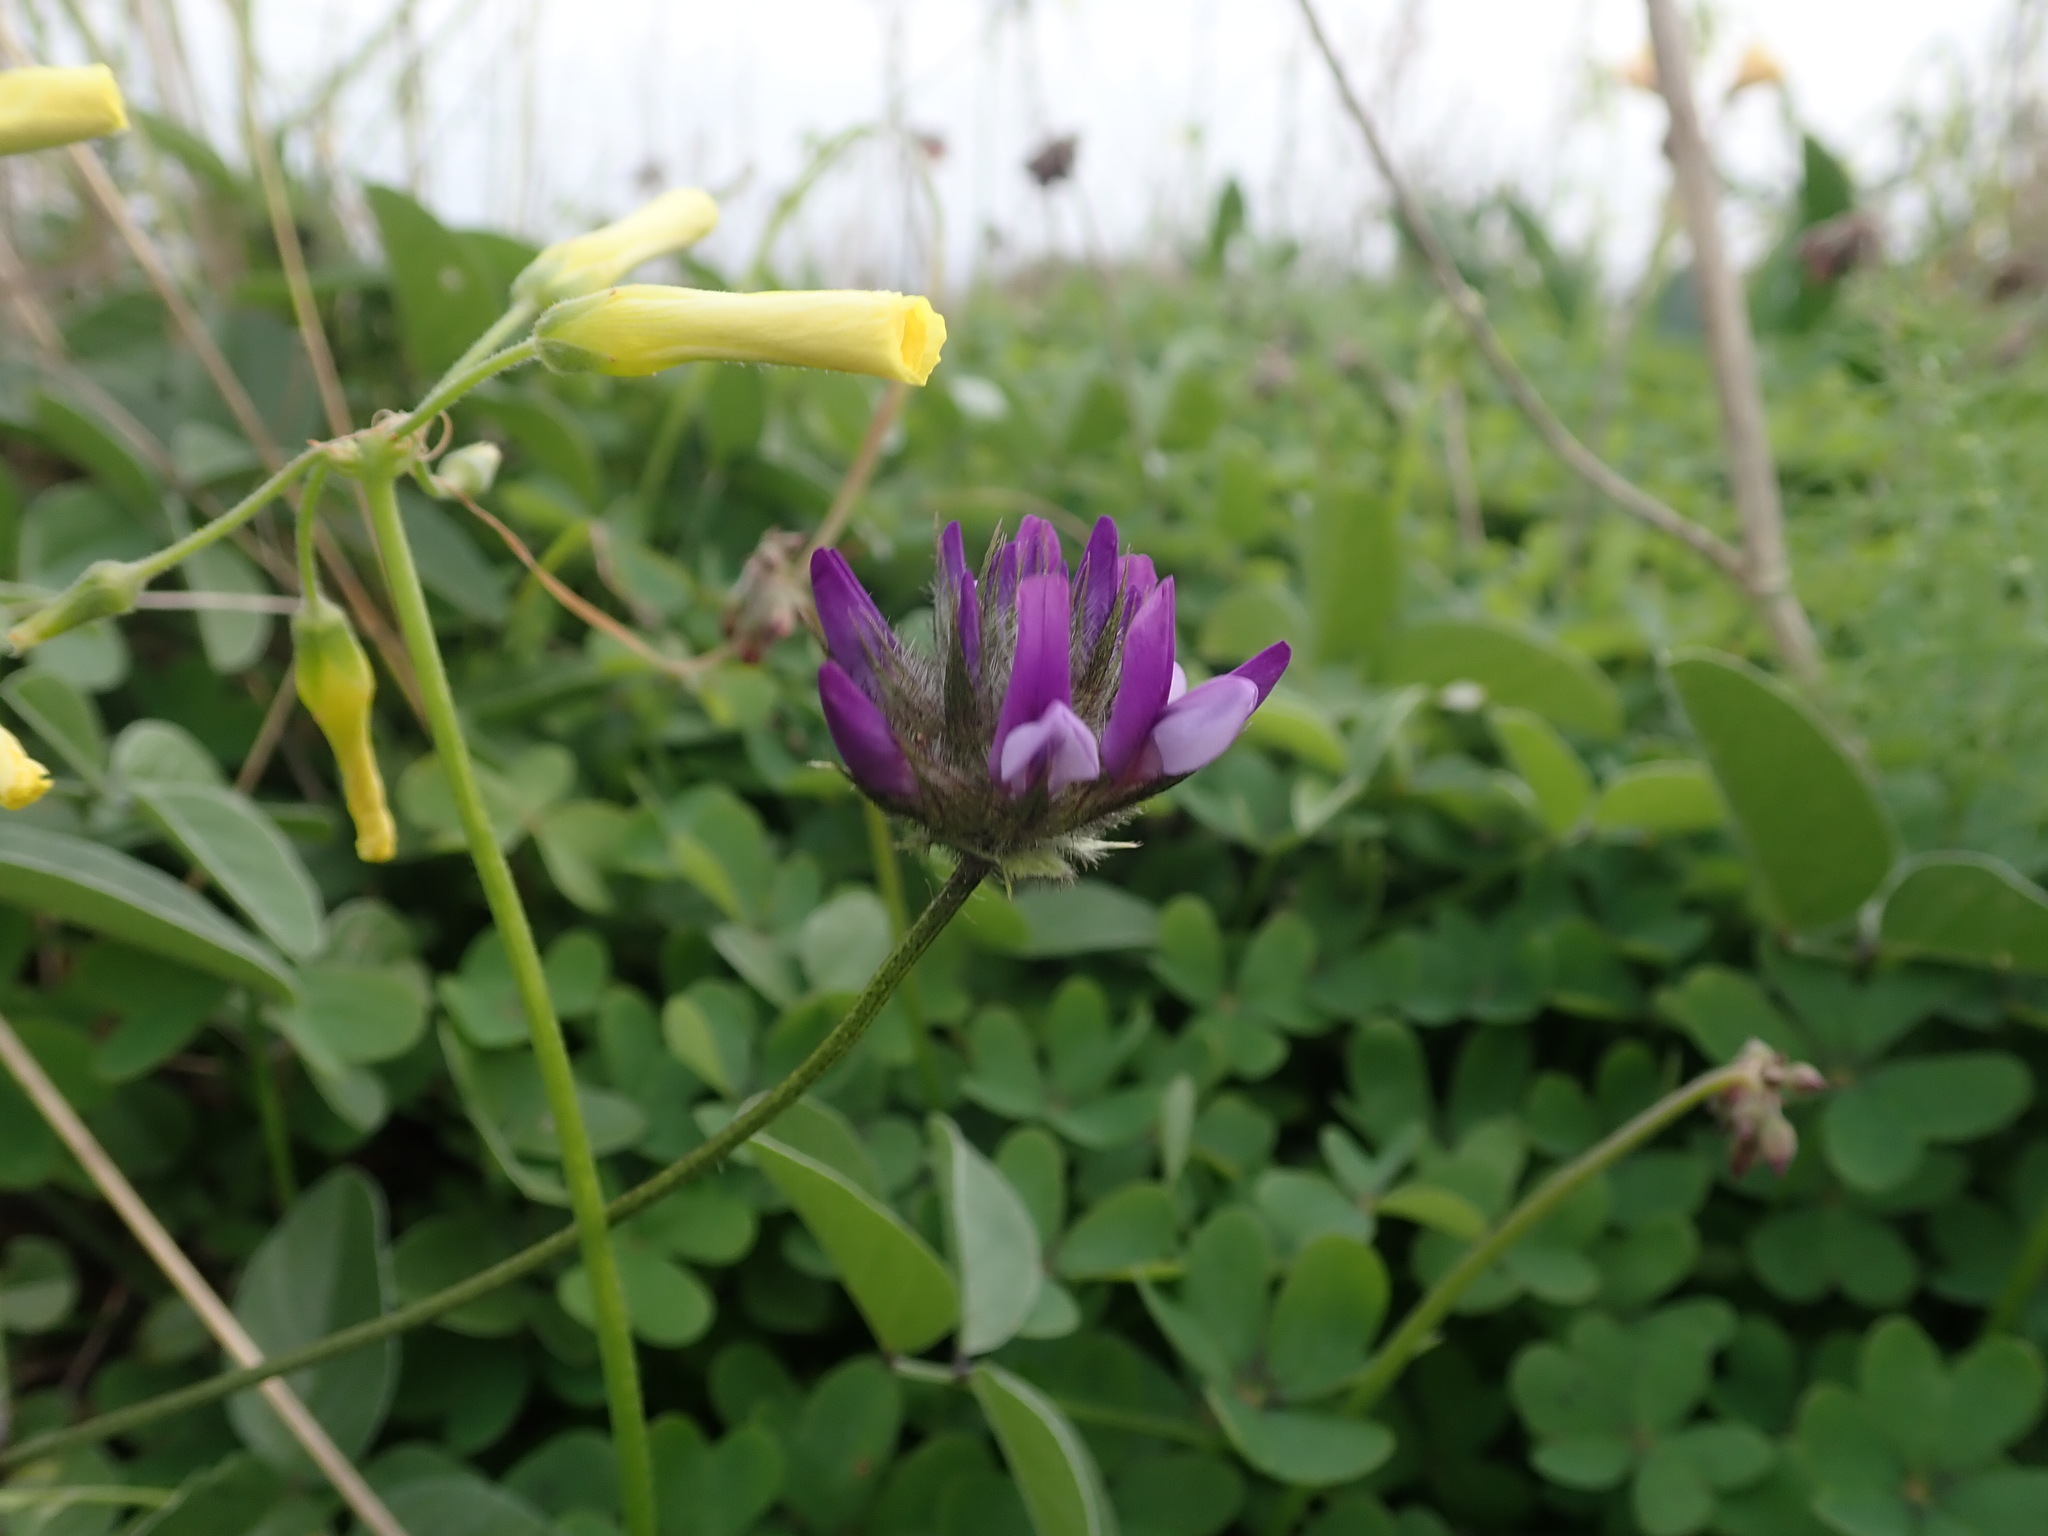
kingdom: Plantae
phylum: Tracheophyta
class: Magnoliopsida
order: Fabales
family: Fabaceae
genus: Bituminaria
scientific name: Bituminaria bituminosa
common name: Arabian pea
